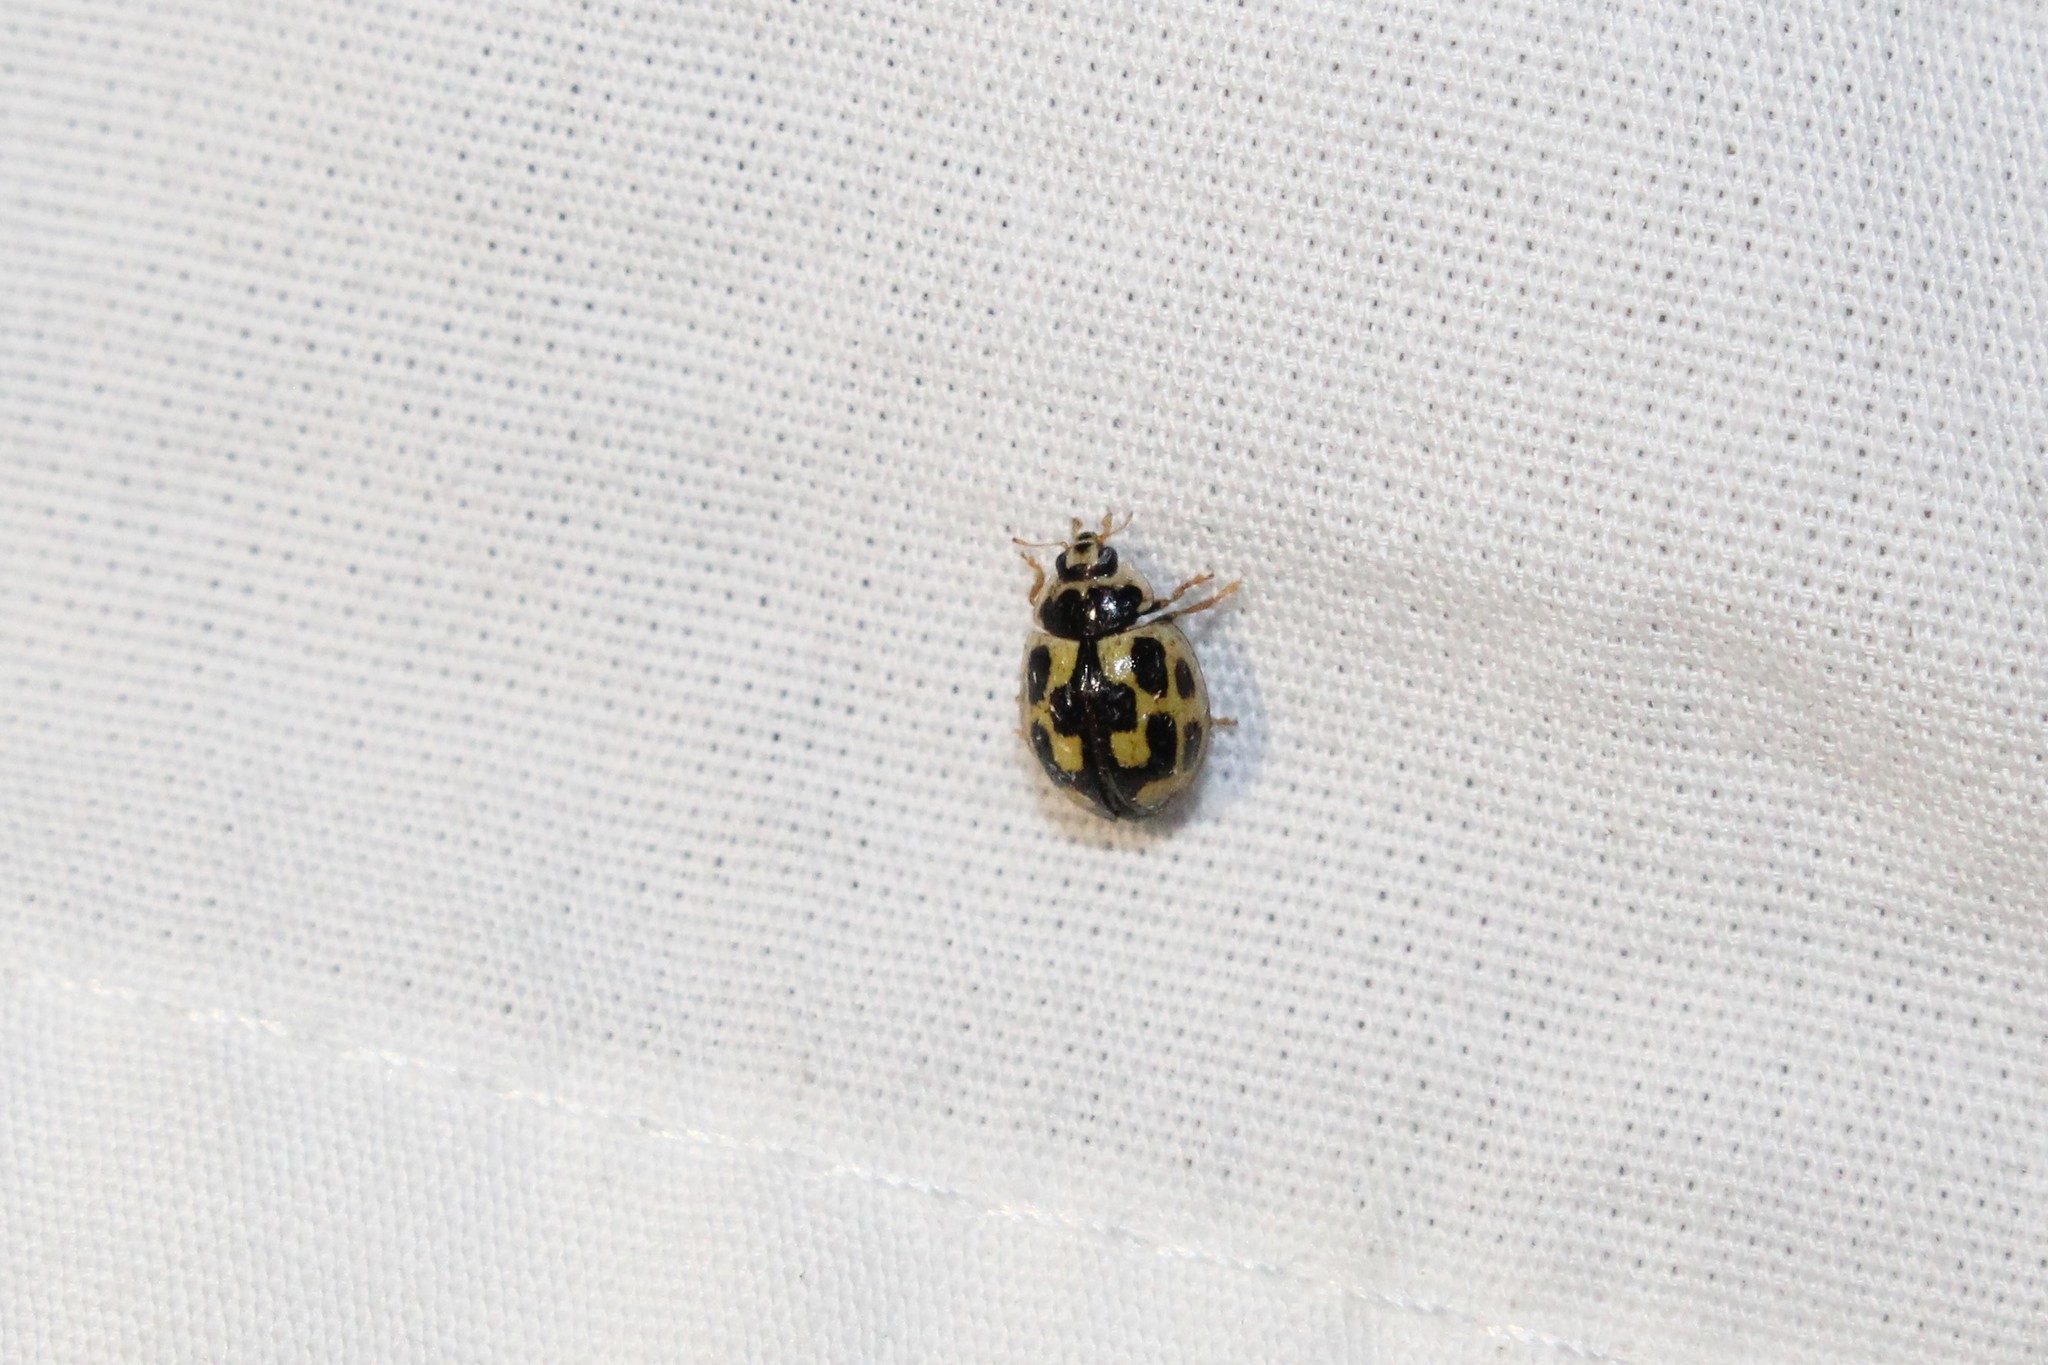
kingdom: Animalia
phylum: Arthropoda
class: Insecta
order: Coleoptera
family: Coccinellidae
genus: Propylaea
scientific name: Propylaea quatuordecimpunctata
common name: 14-spotted ladybird beetle
